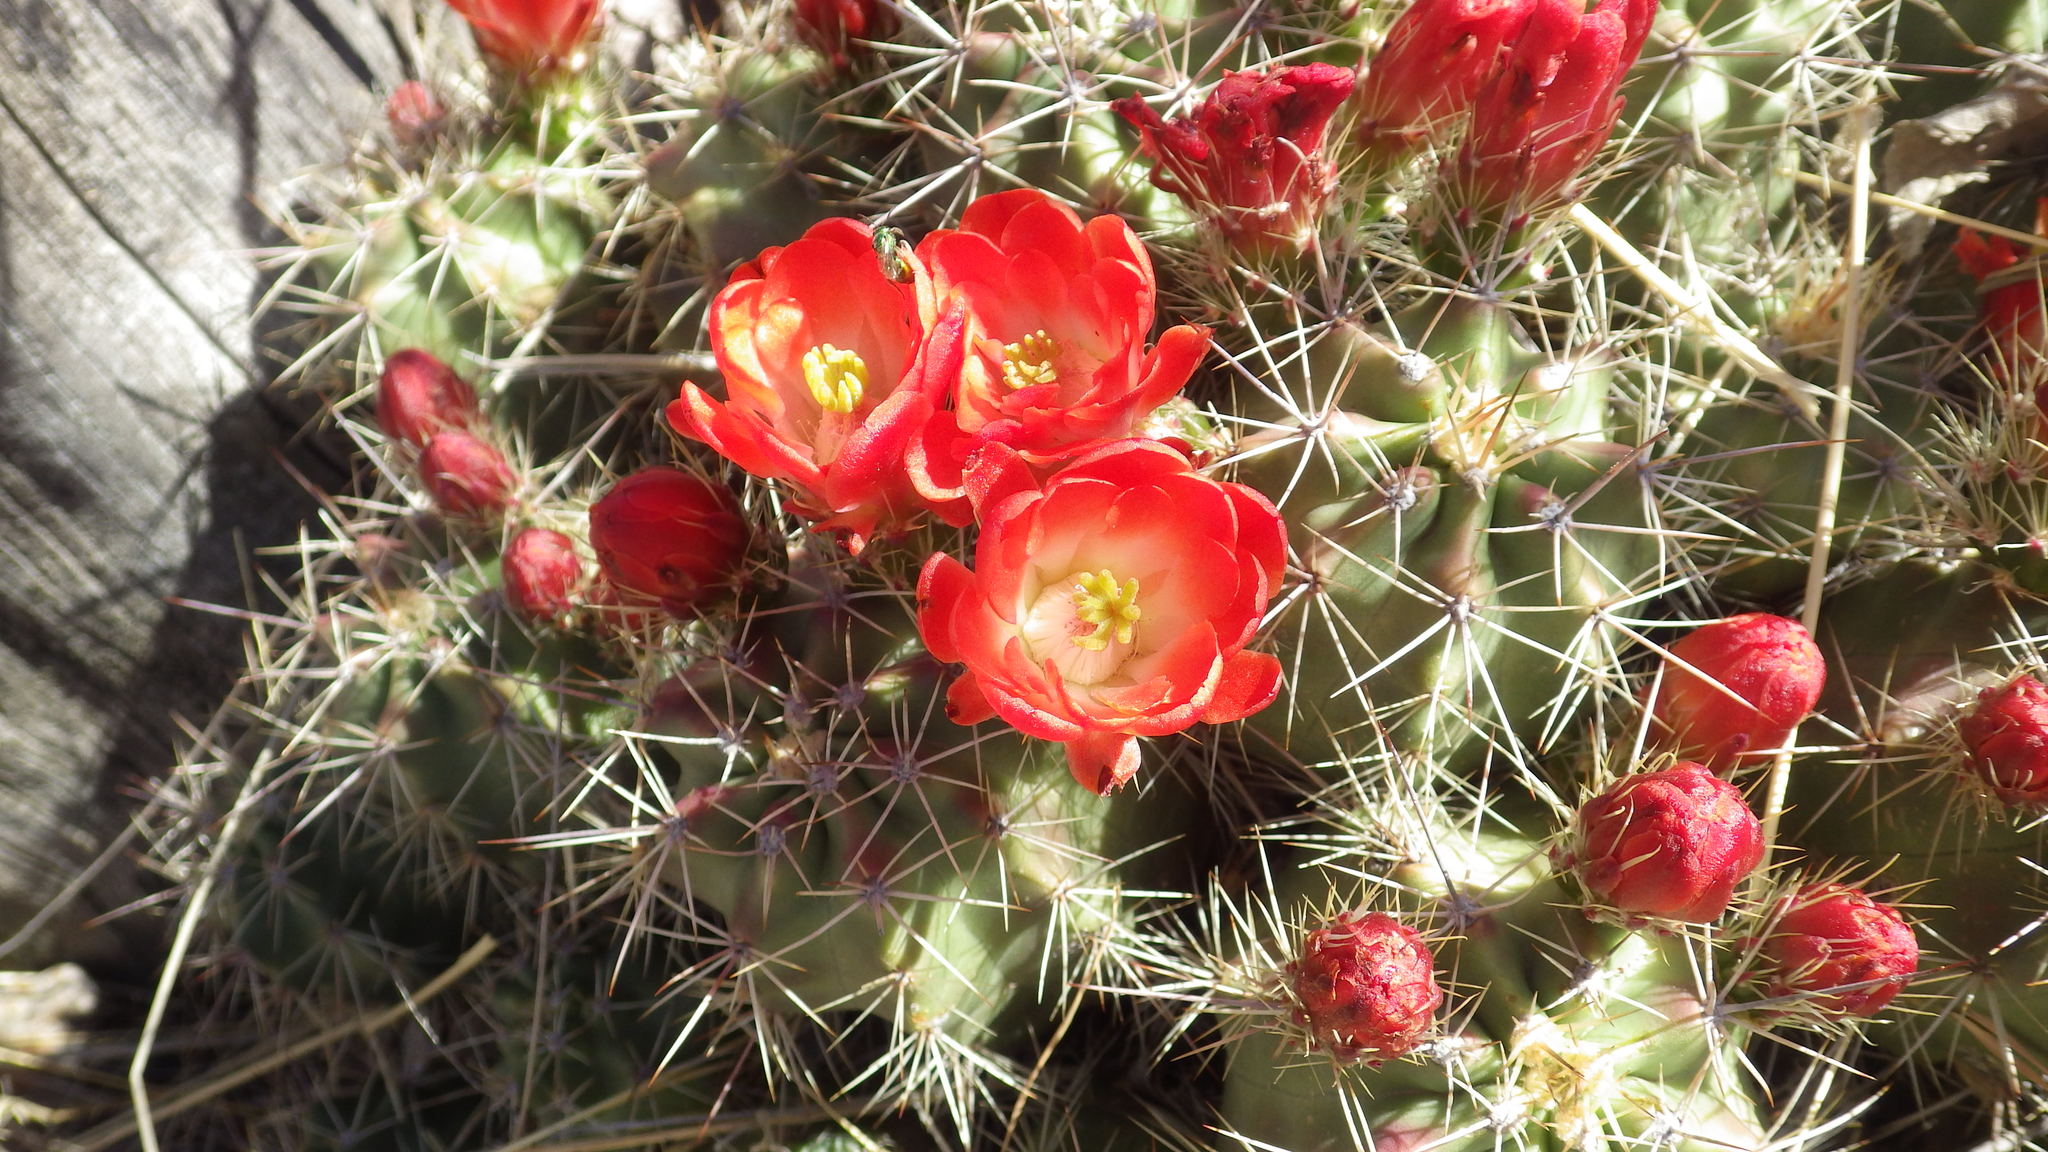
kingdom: Plantae
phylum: Tracheophyta
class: Magnoliopsida
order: Caryophyllales
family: Cactaceae
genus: Echinocereus
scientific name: Echinocereus coccineus
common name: Scarlet hedgehog cactus
